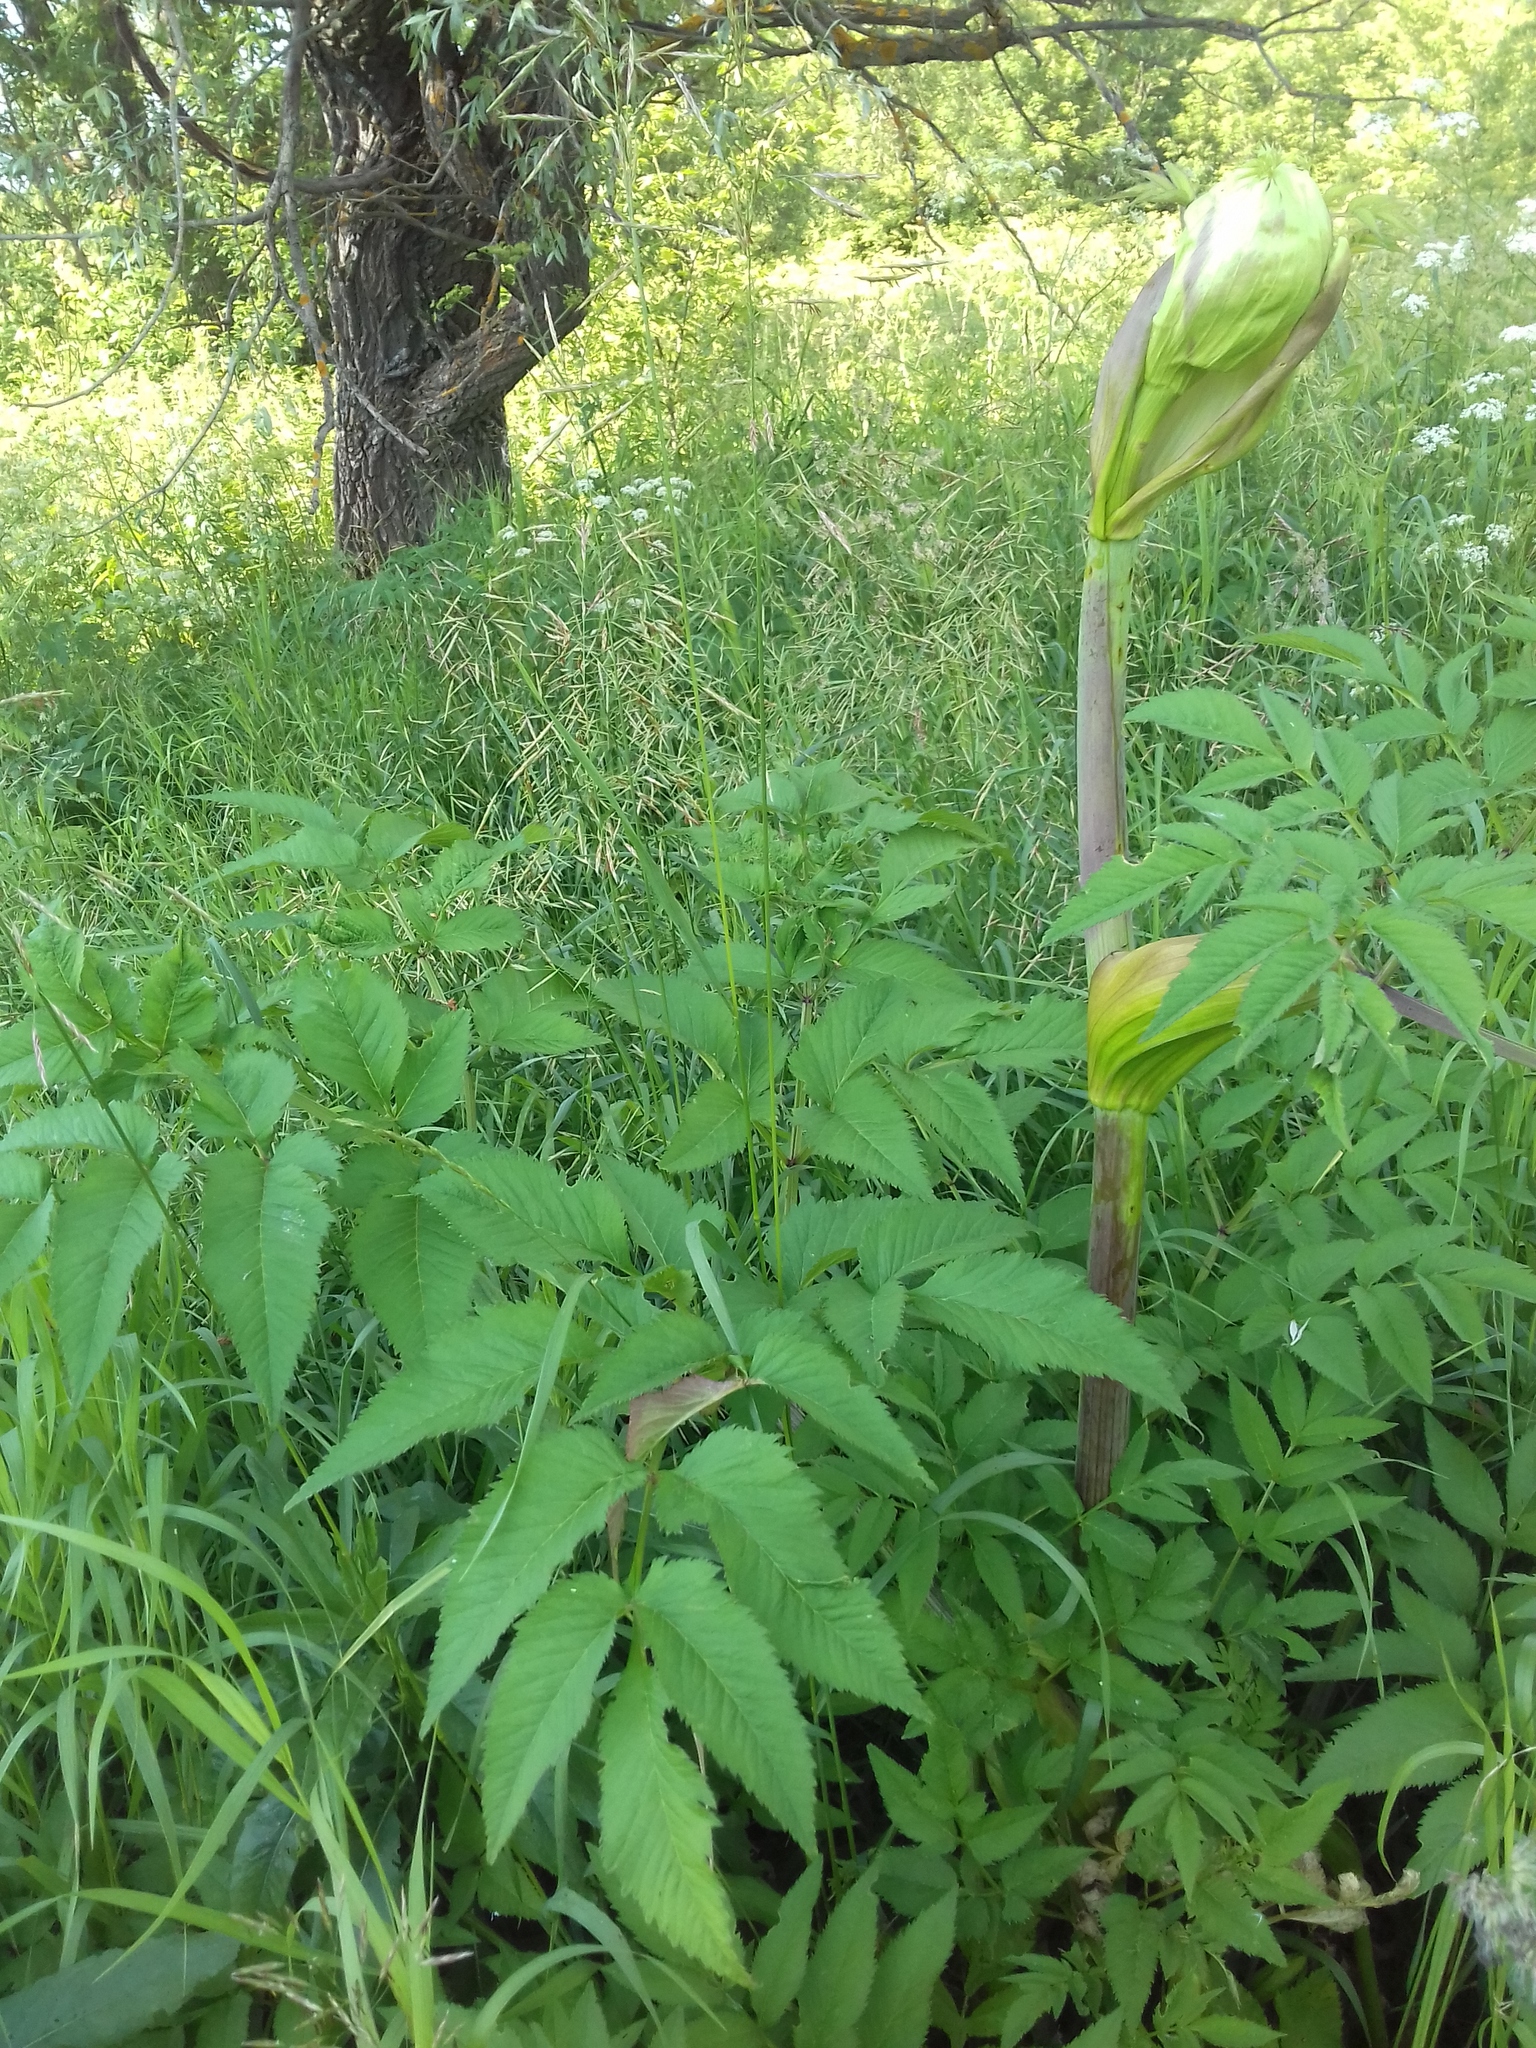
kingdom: Plantae
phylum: Tracheophyta
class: Magnoliopsida
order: Apiales
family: Apiaceae
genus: Angelica
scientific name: Angelica sylvestris
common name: Wild angelica
